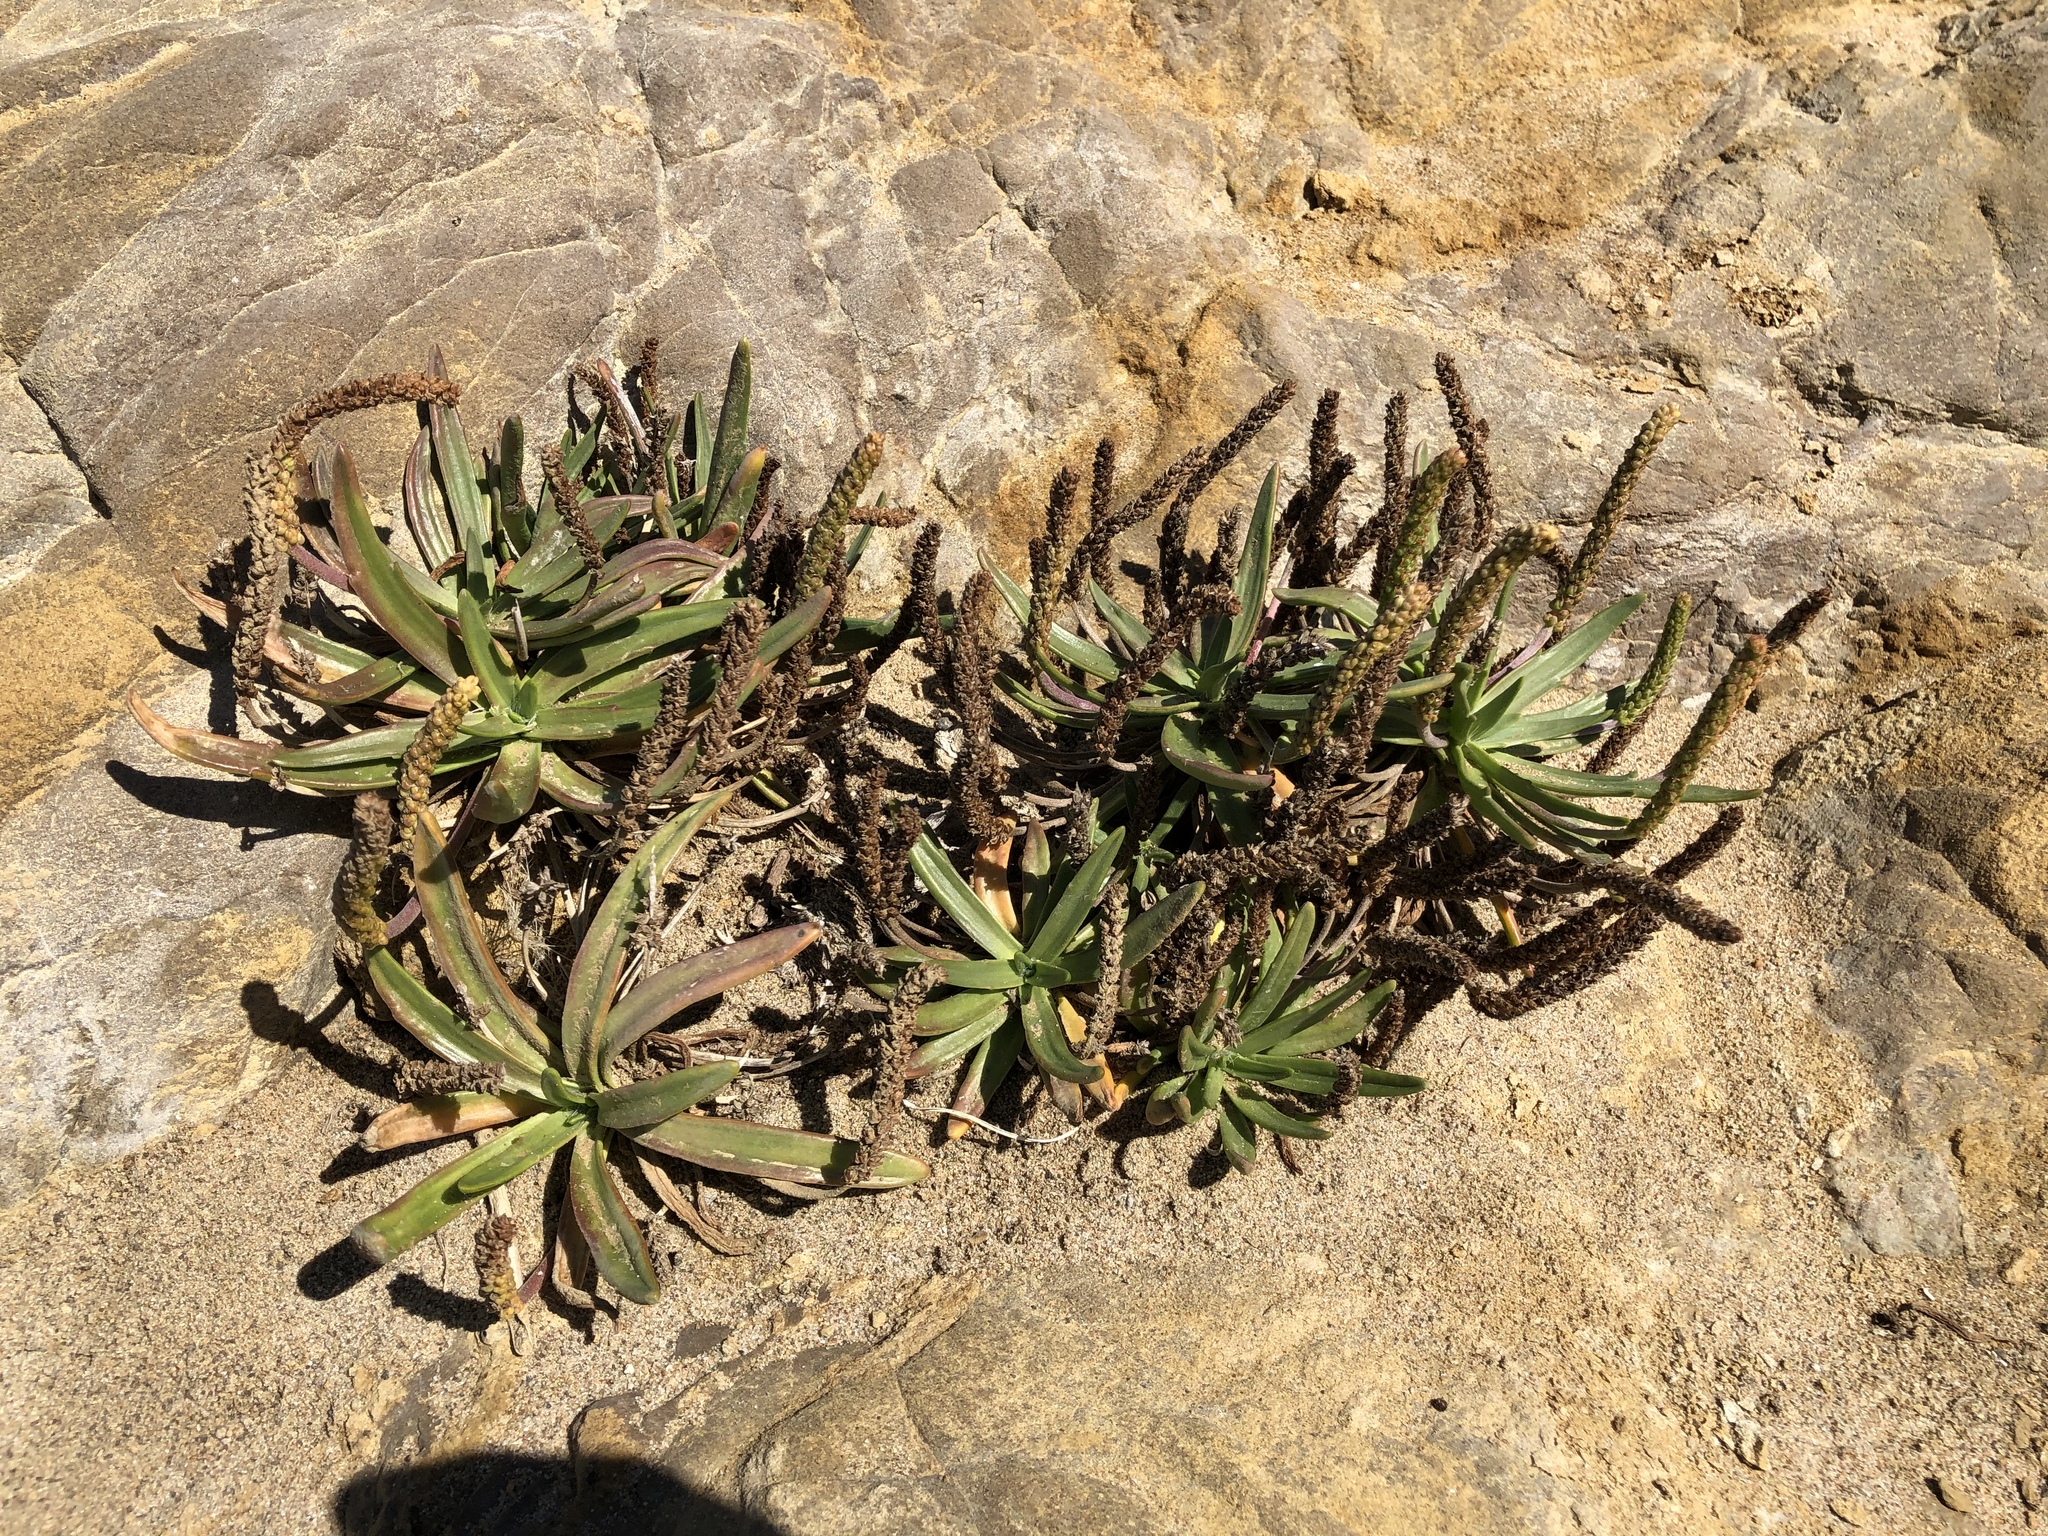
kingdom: Plantae
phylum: Tracheophyta
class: Magnoliopsida
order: Lamiales
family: Plantaginaceae
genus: Plantago
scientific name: Plantago maritima
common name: Sea plantain
